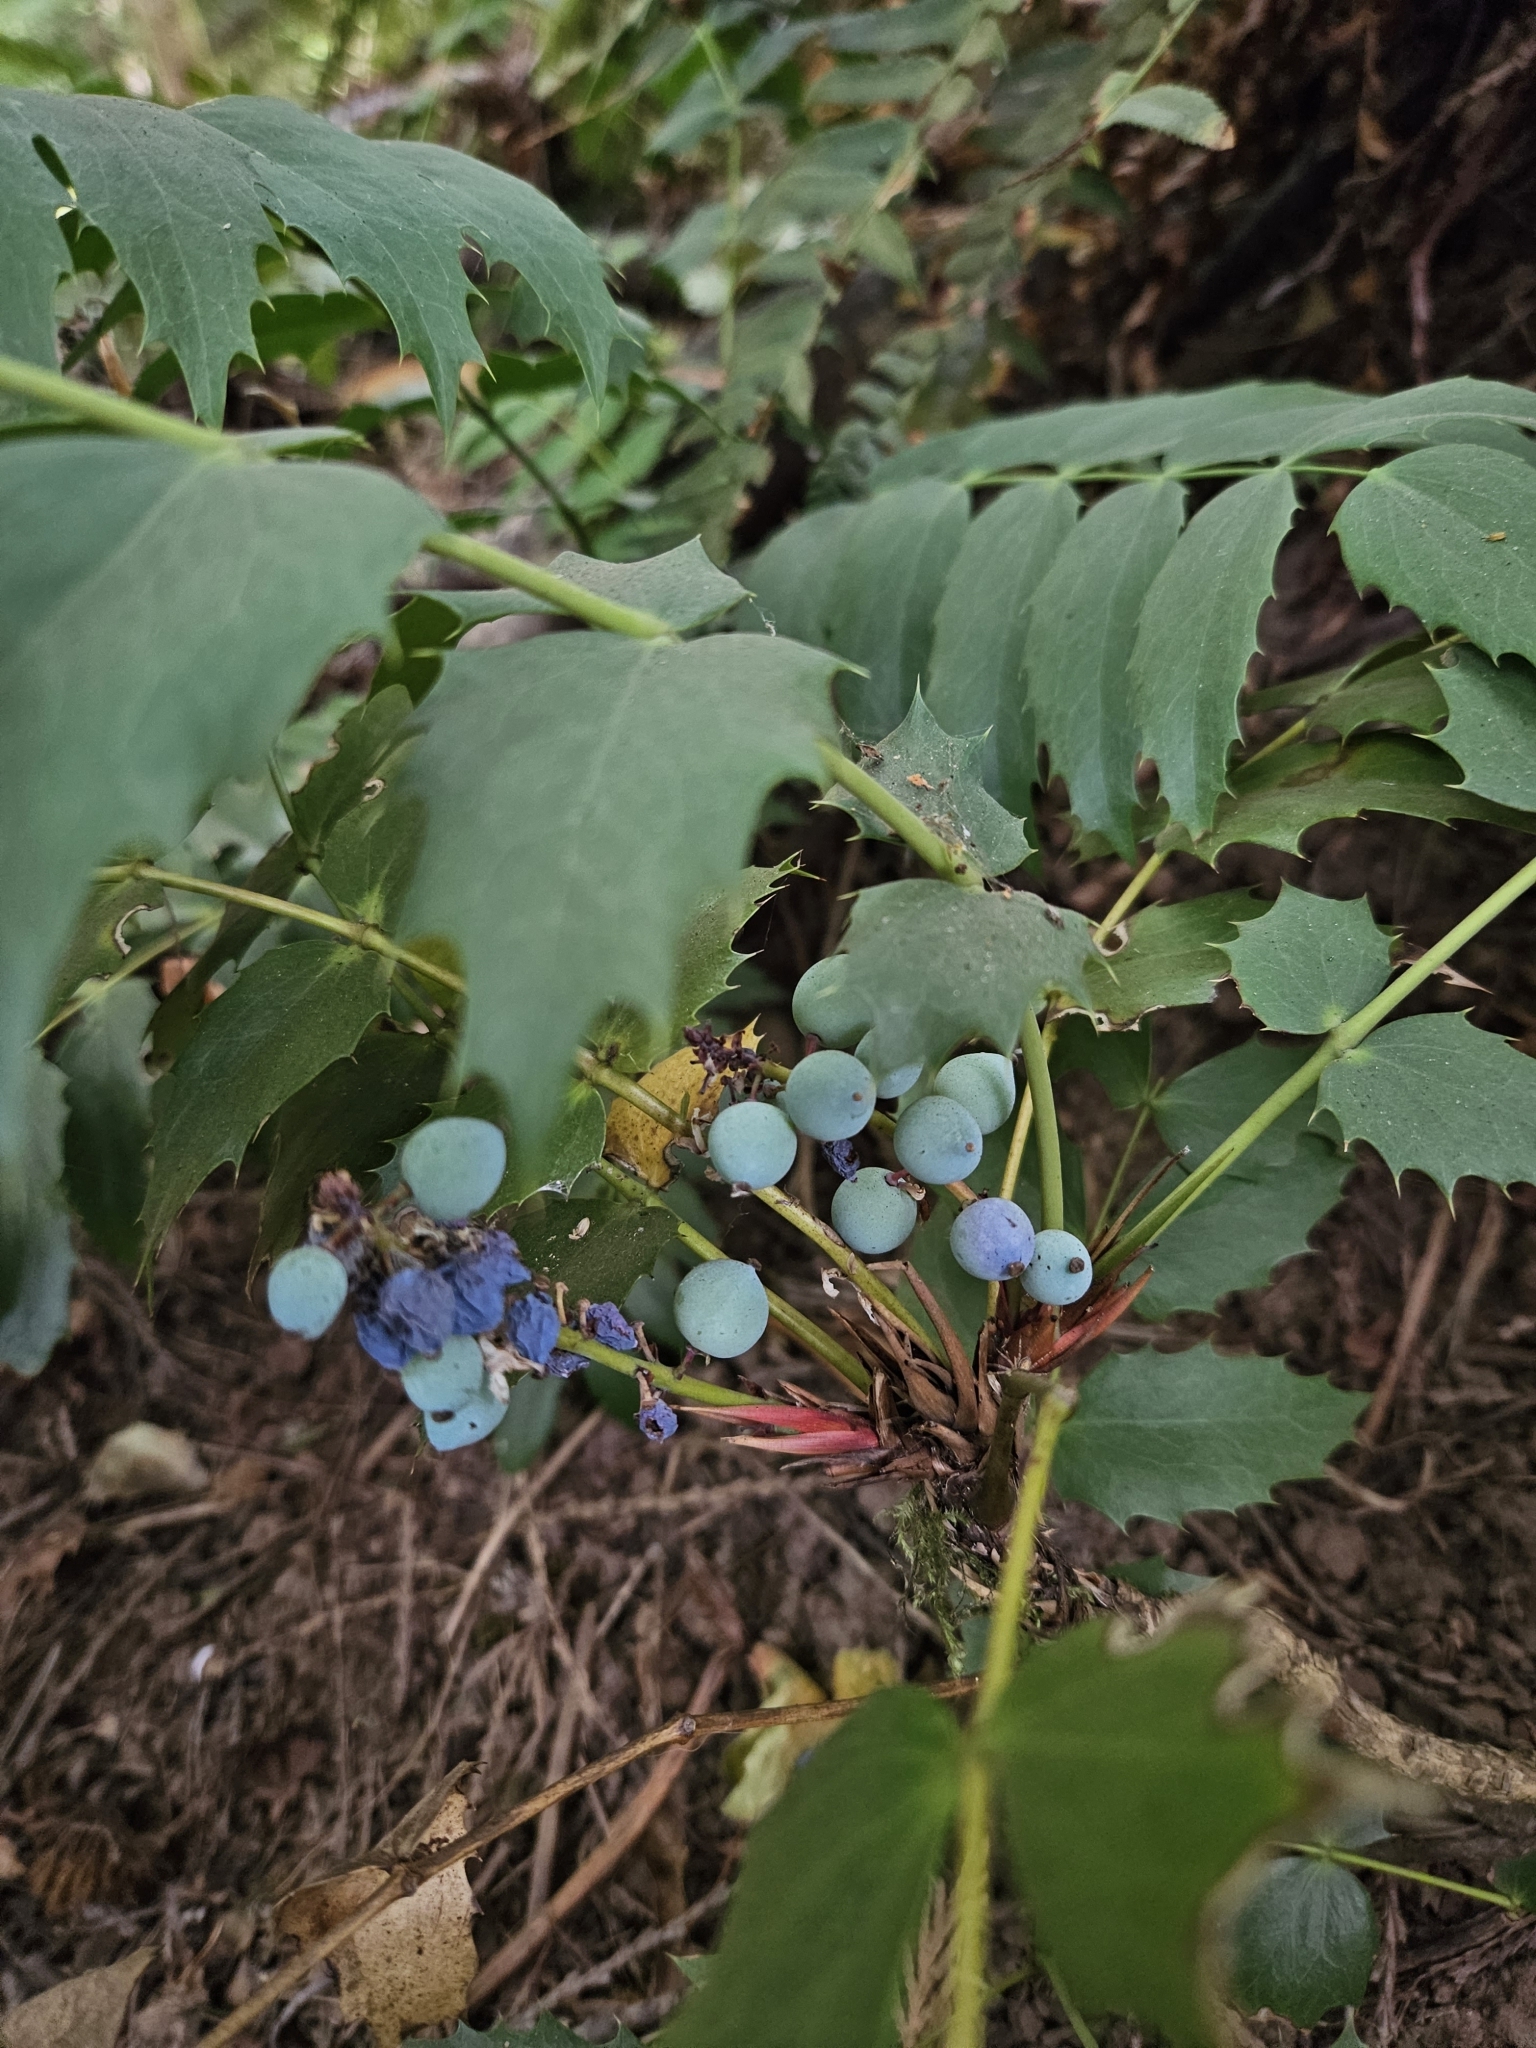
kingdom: Plantae
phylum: Tracheophyta
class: Magnoliopsida
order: Ranunculales
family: Berberidaceae
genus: Mahonia
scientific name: Mahonia nervosa
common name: Cascade oregon-grape
